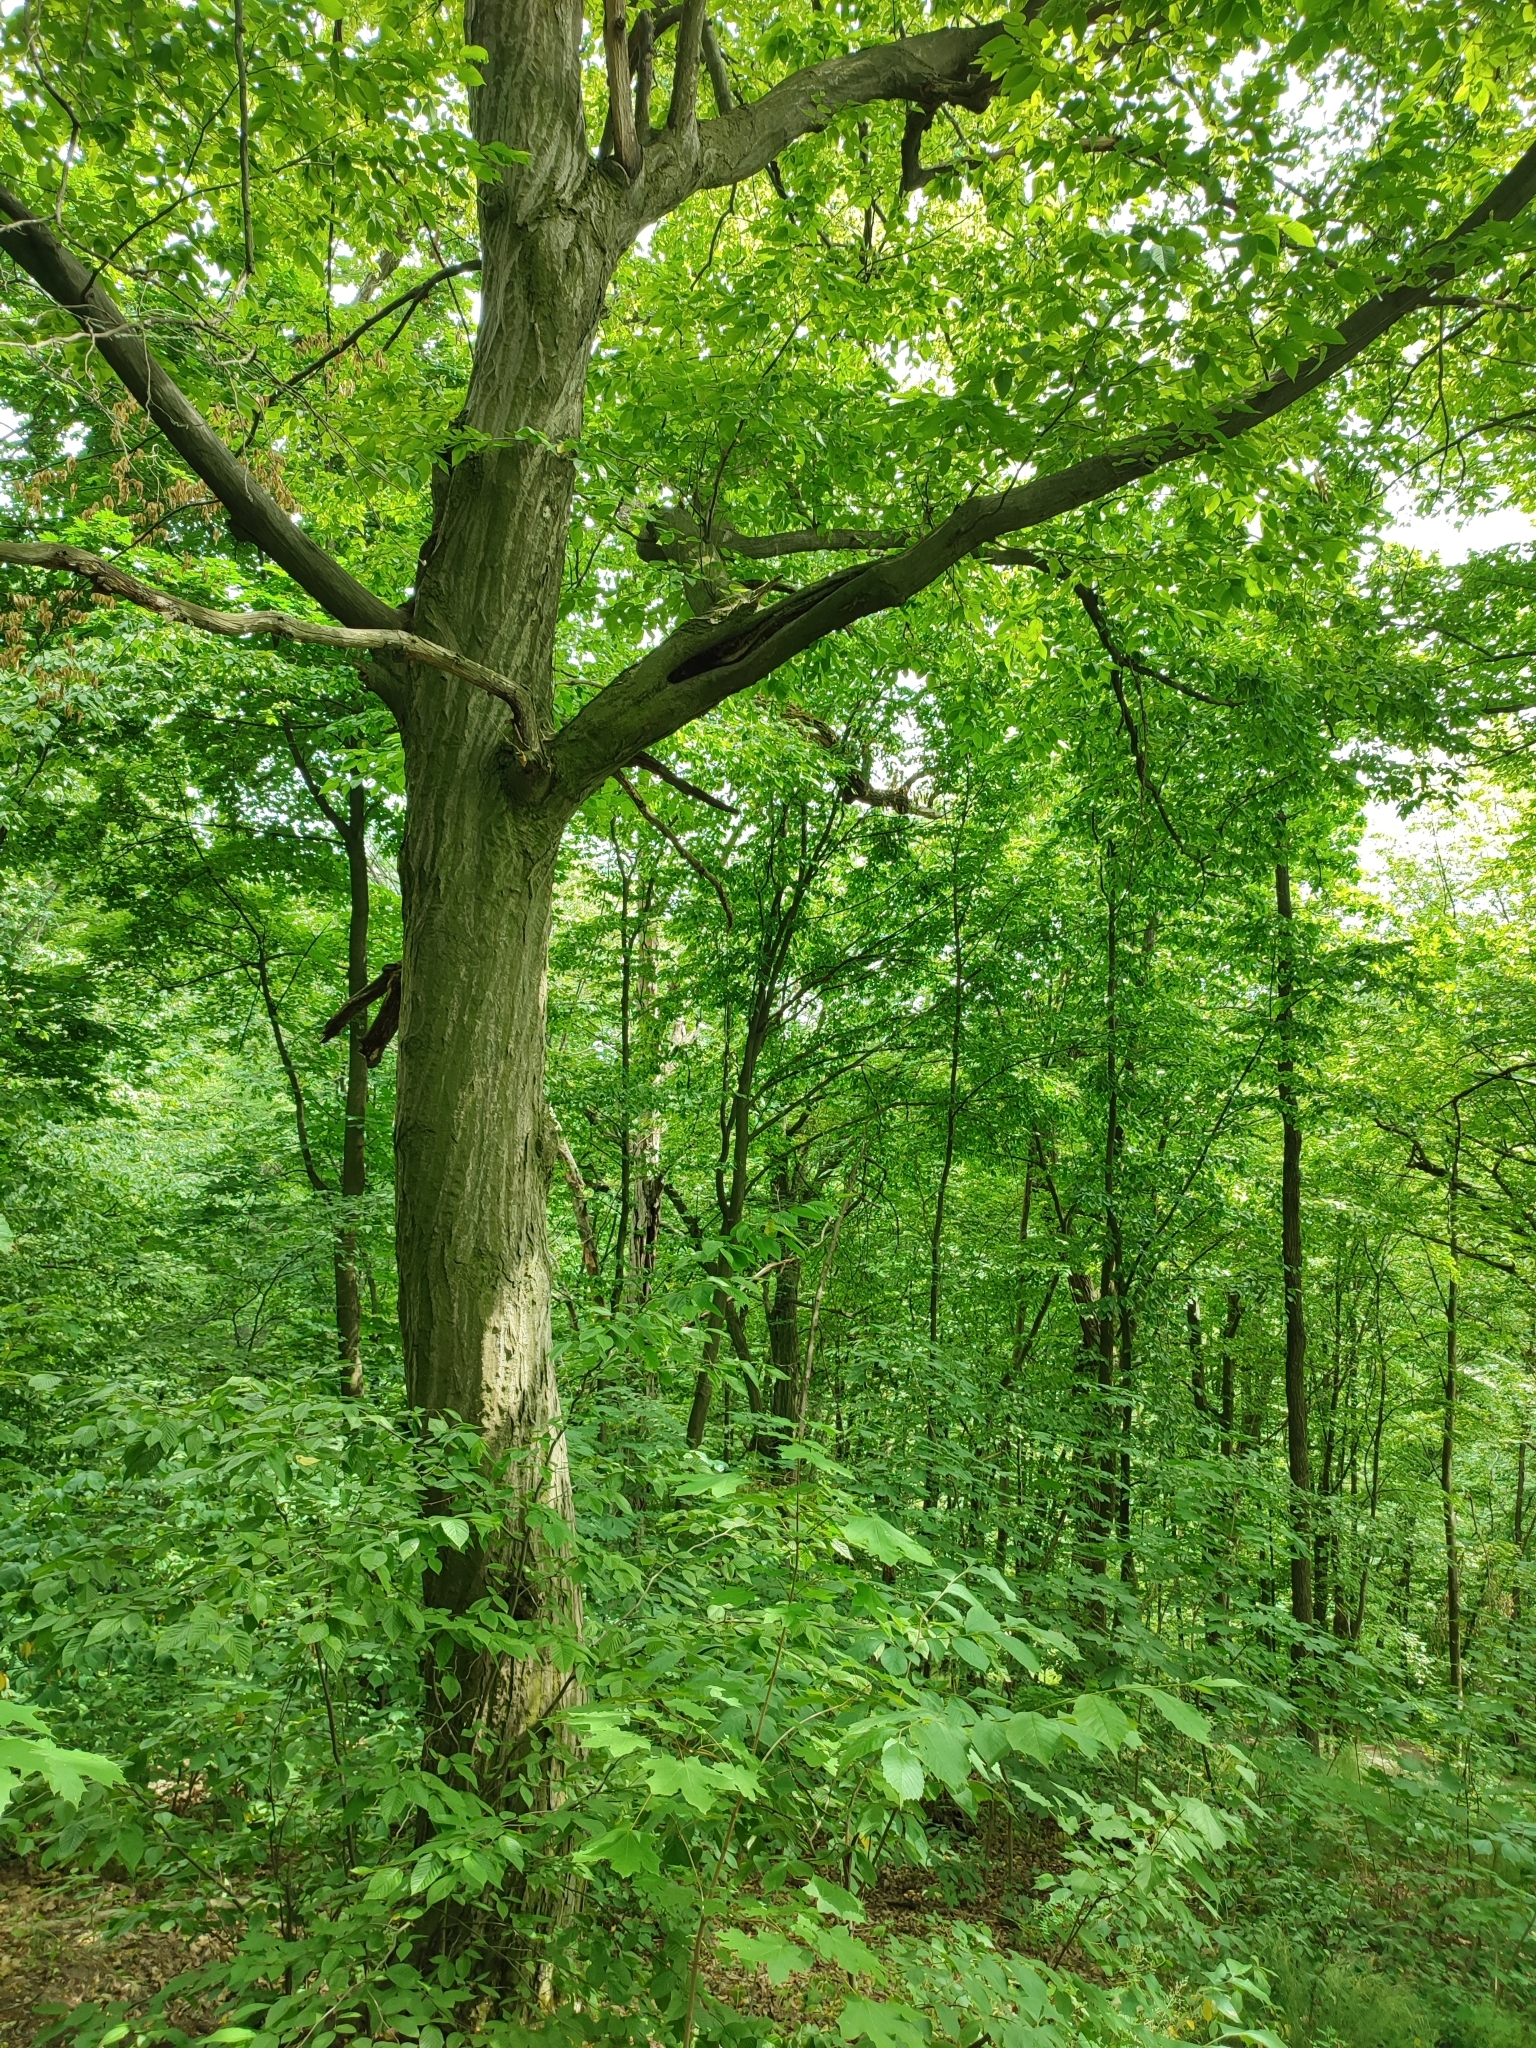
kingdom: Plantae
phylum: Tracheophyta
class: Magnoliopsida
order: Fagales
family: Betulaceae
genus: Carpinus
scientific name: Carpinus betulus
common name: Hornbeam
